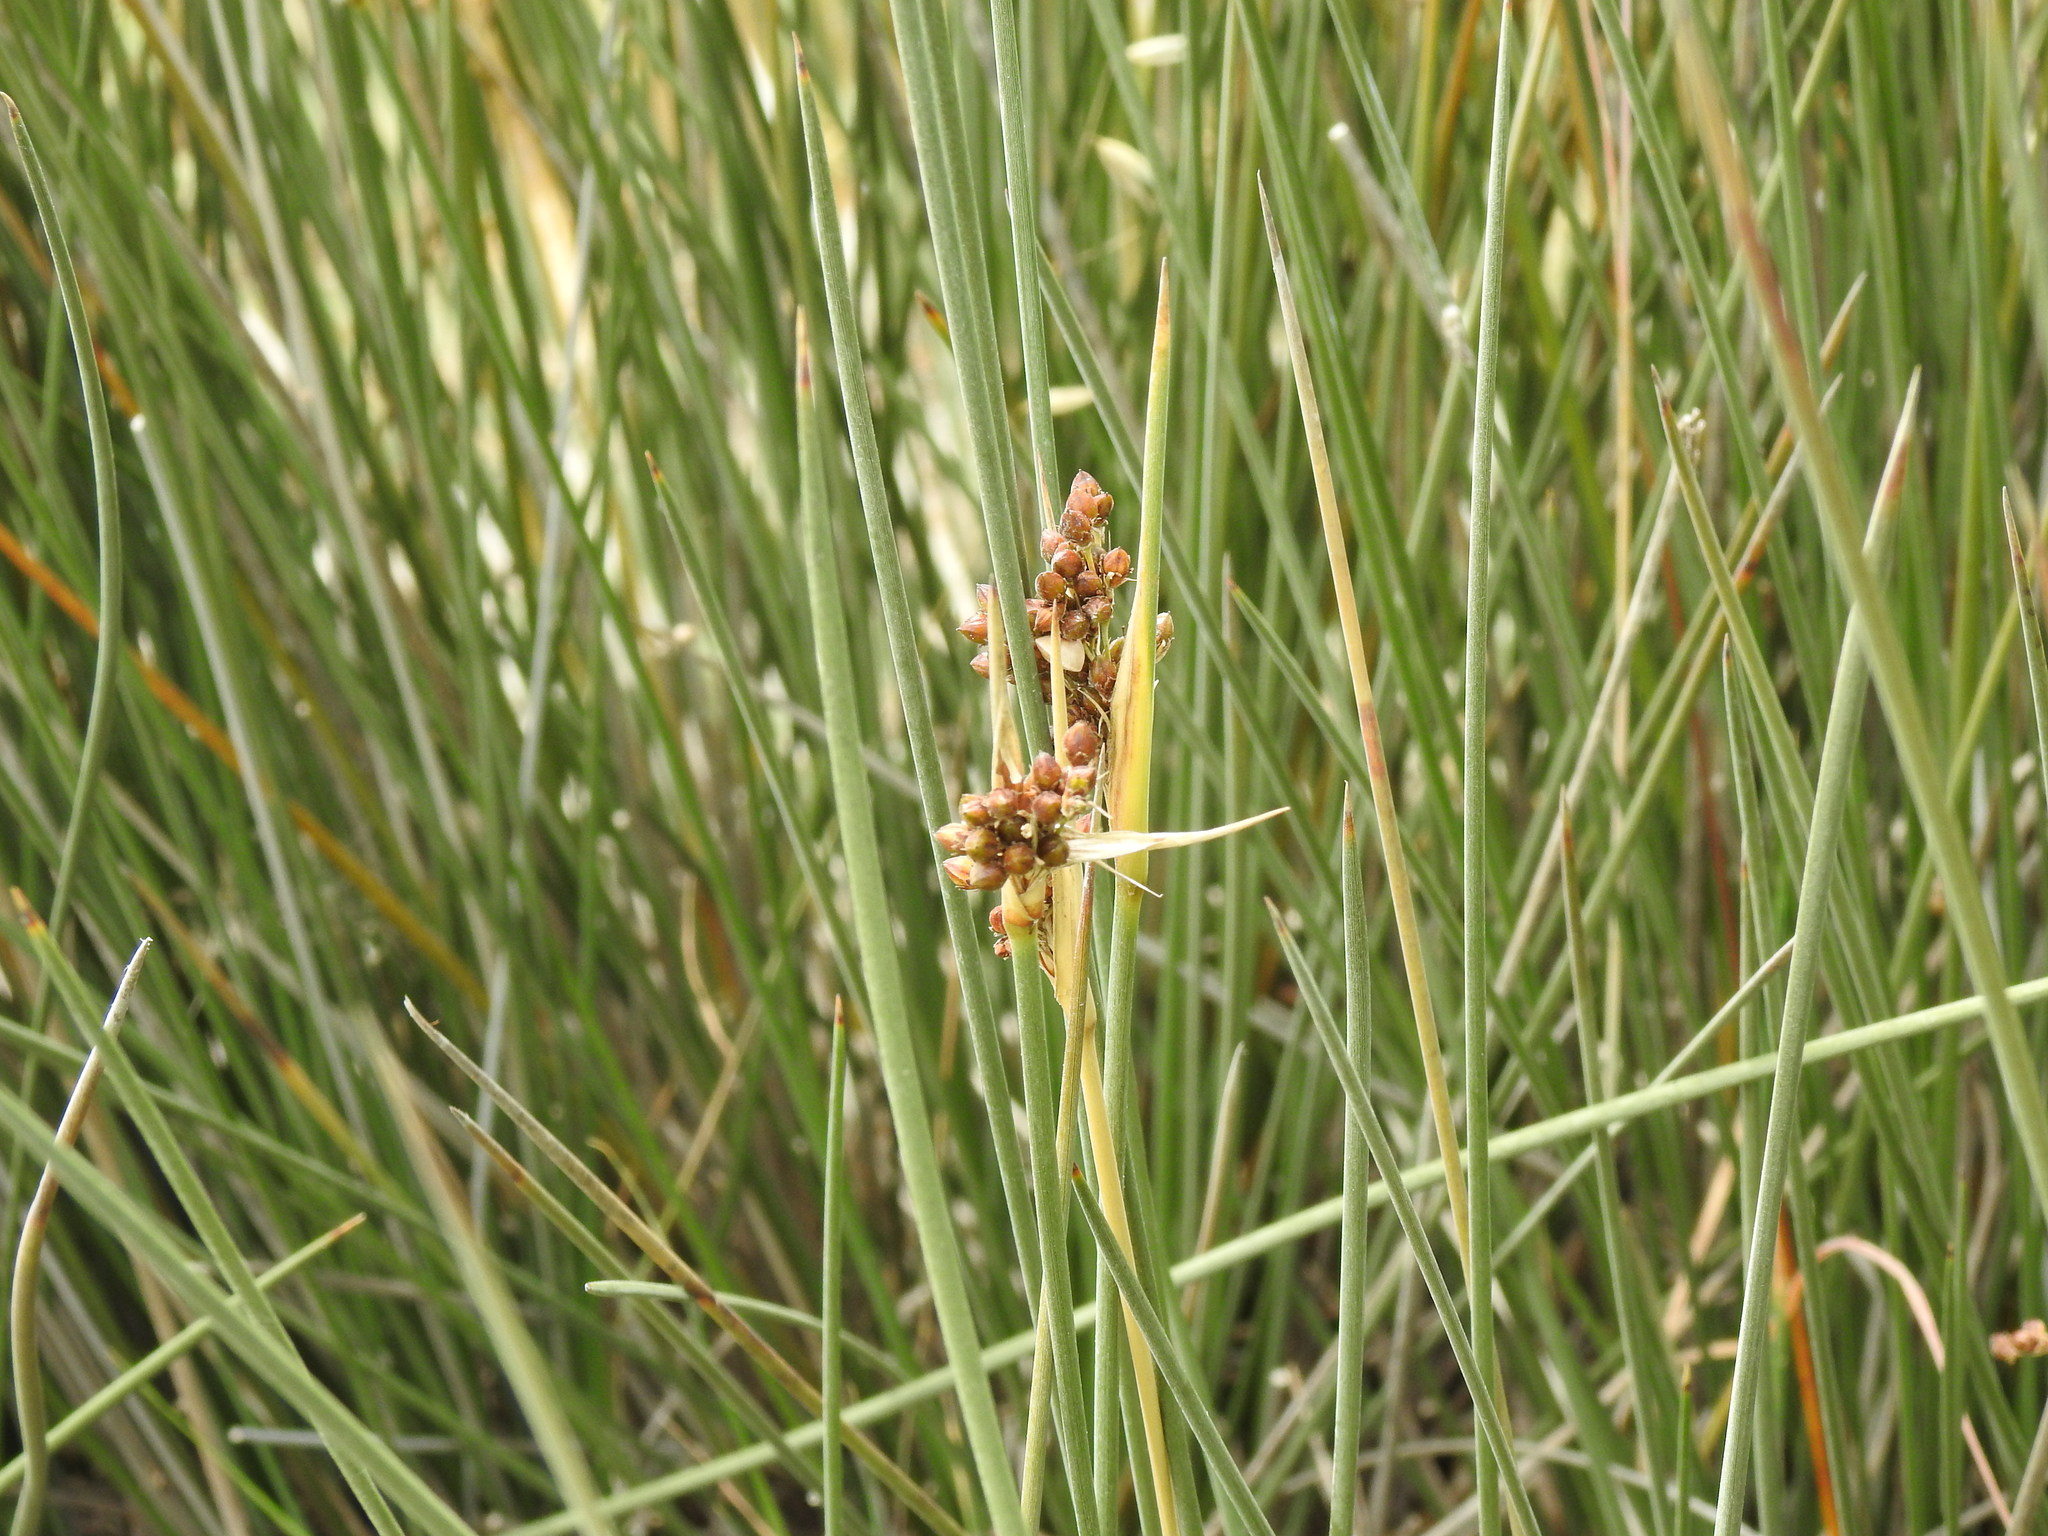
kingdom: Plantae
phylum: Tracheophyta
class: Liliopsida
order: Poales
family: Juncaceae
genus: Juncus
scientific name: Juncus acutus
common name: Sharp rush
